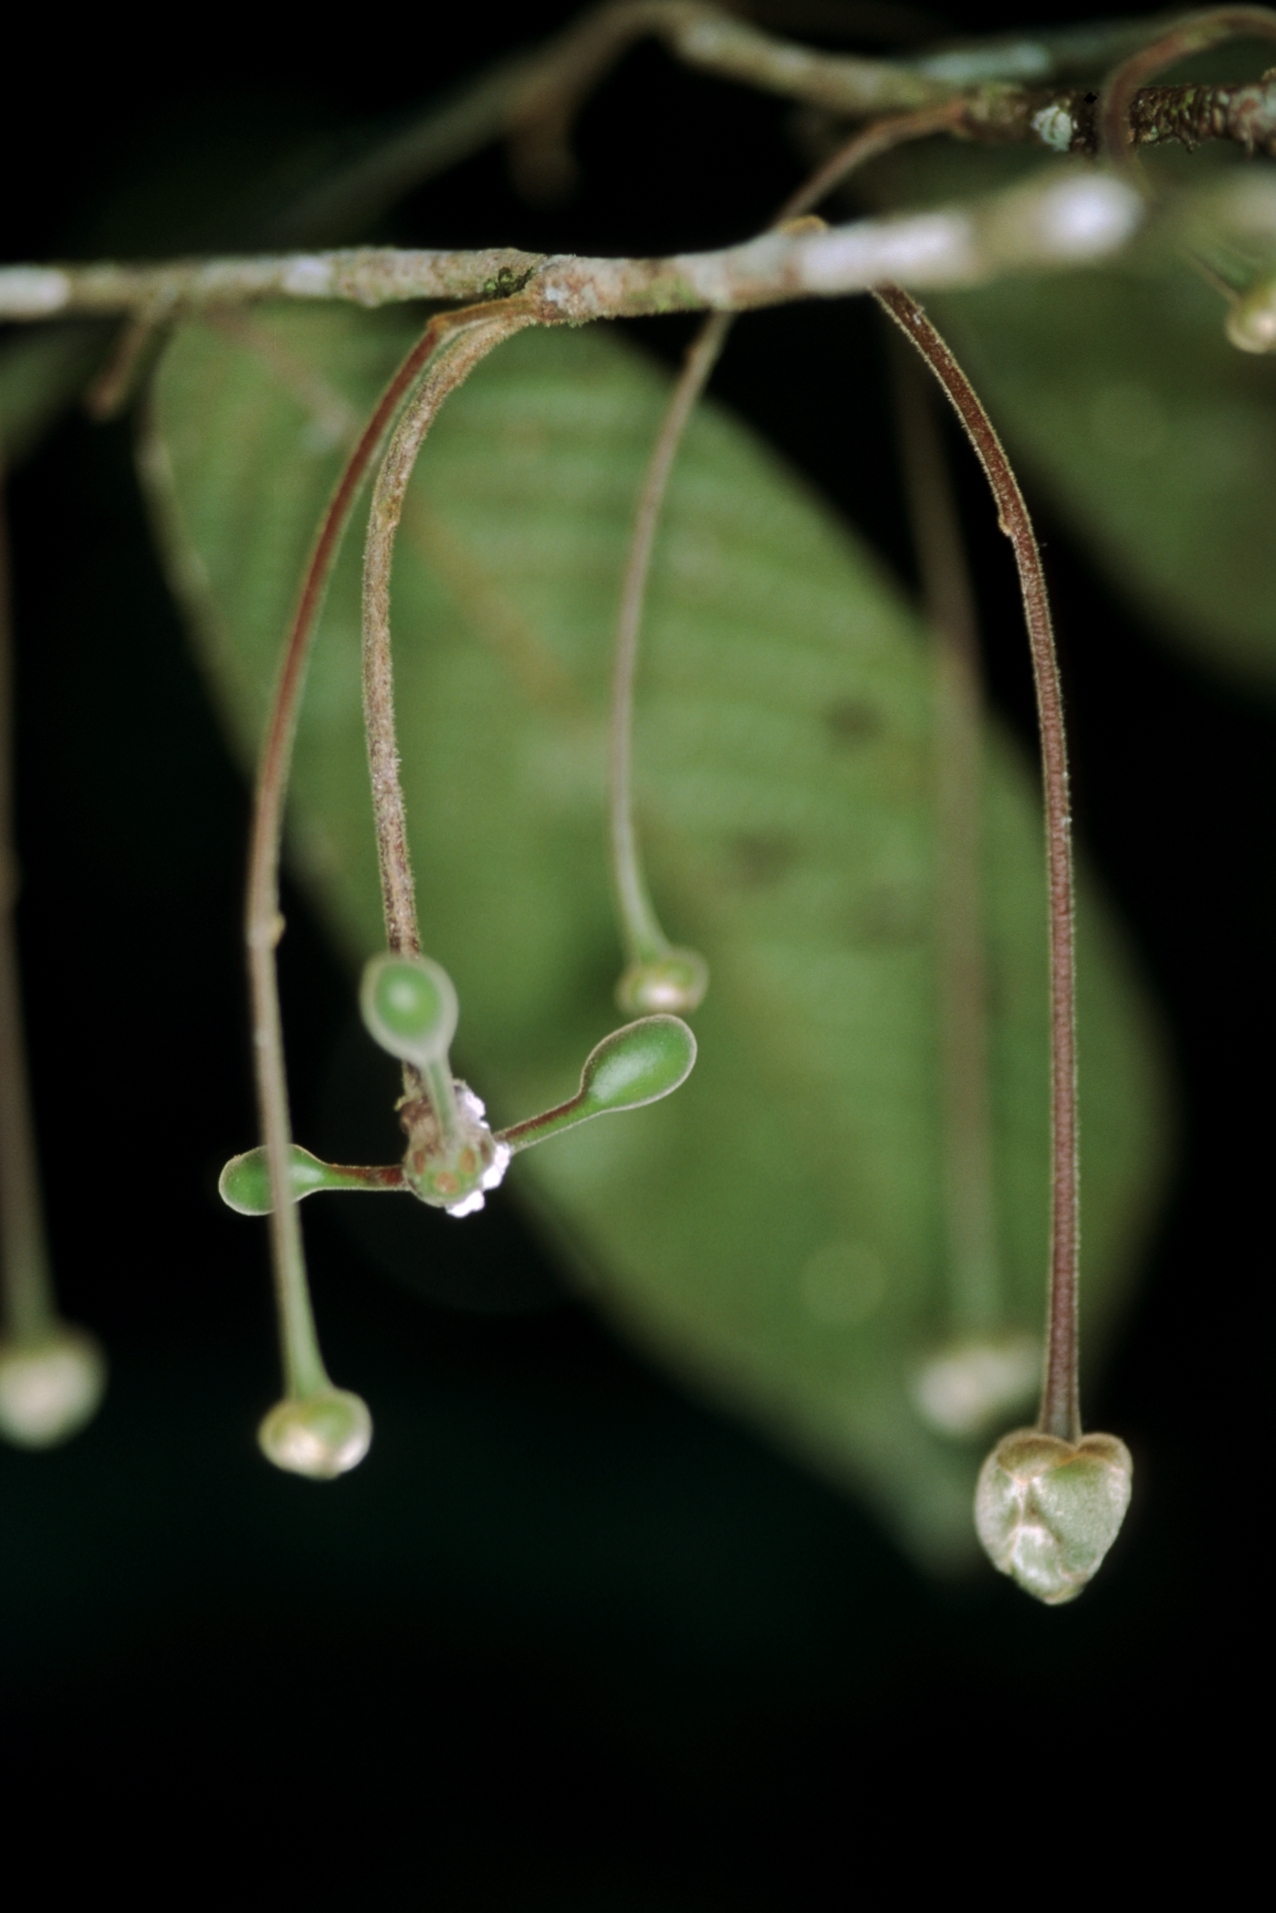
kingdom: Plantae
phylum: Tracheophyta
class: Magnoliopsida
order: Magnoliales
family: Annonaceae
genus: Cremastosperma
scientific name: Cremastosperma bullatum
